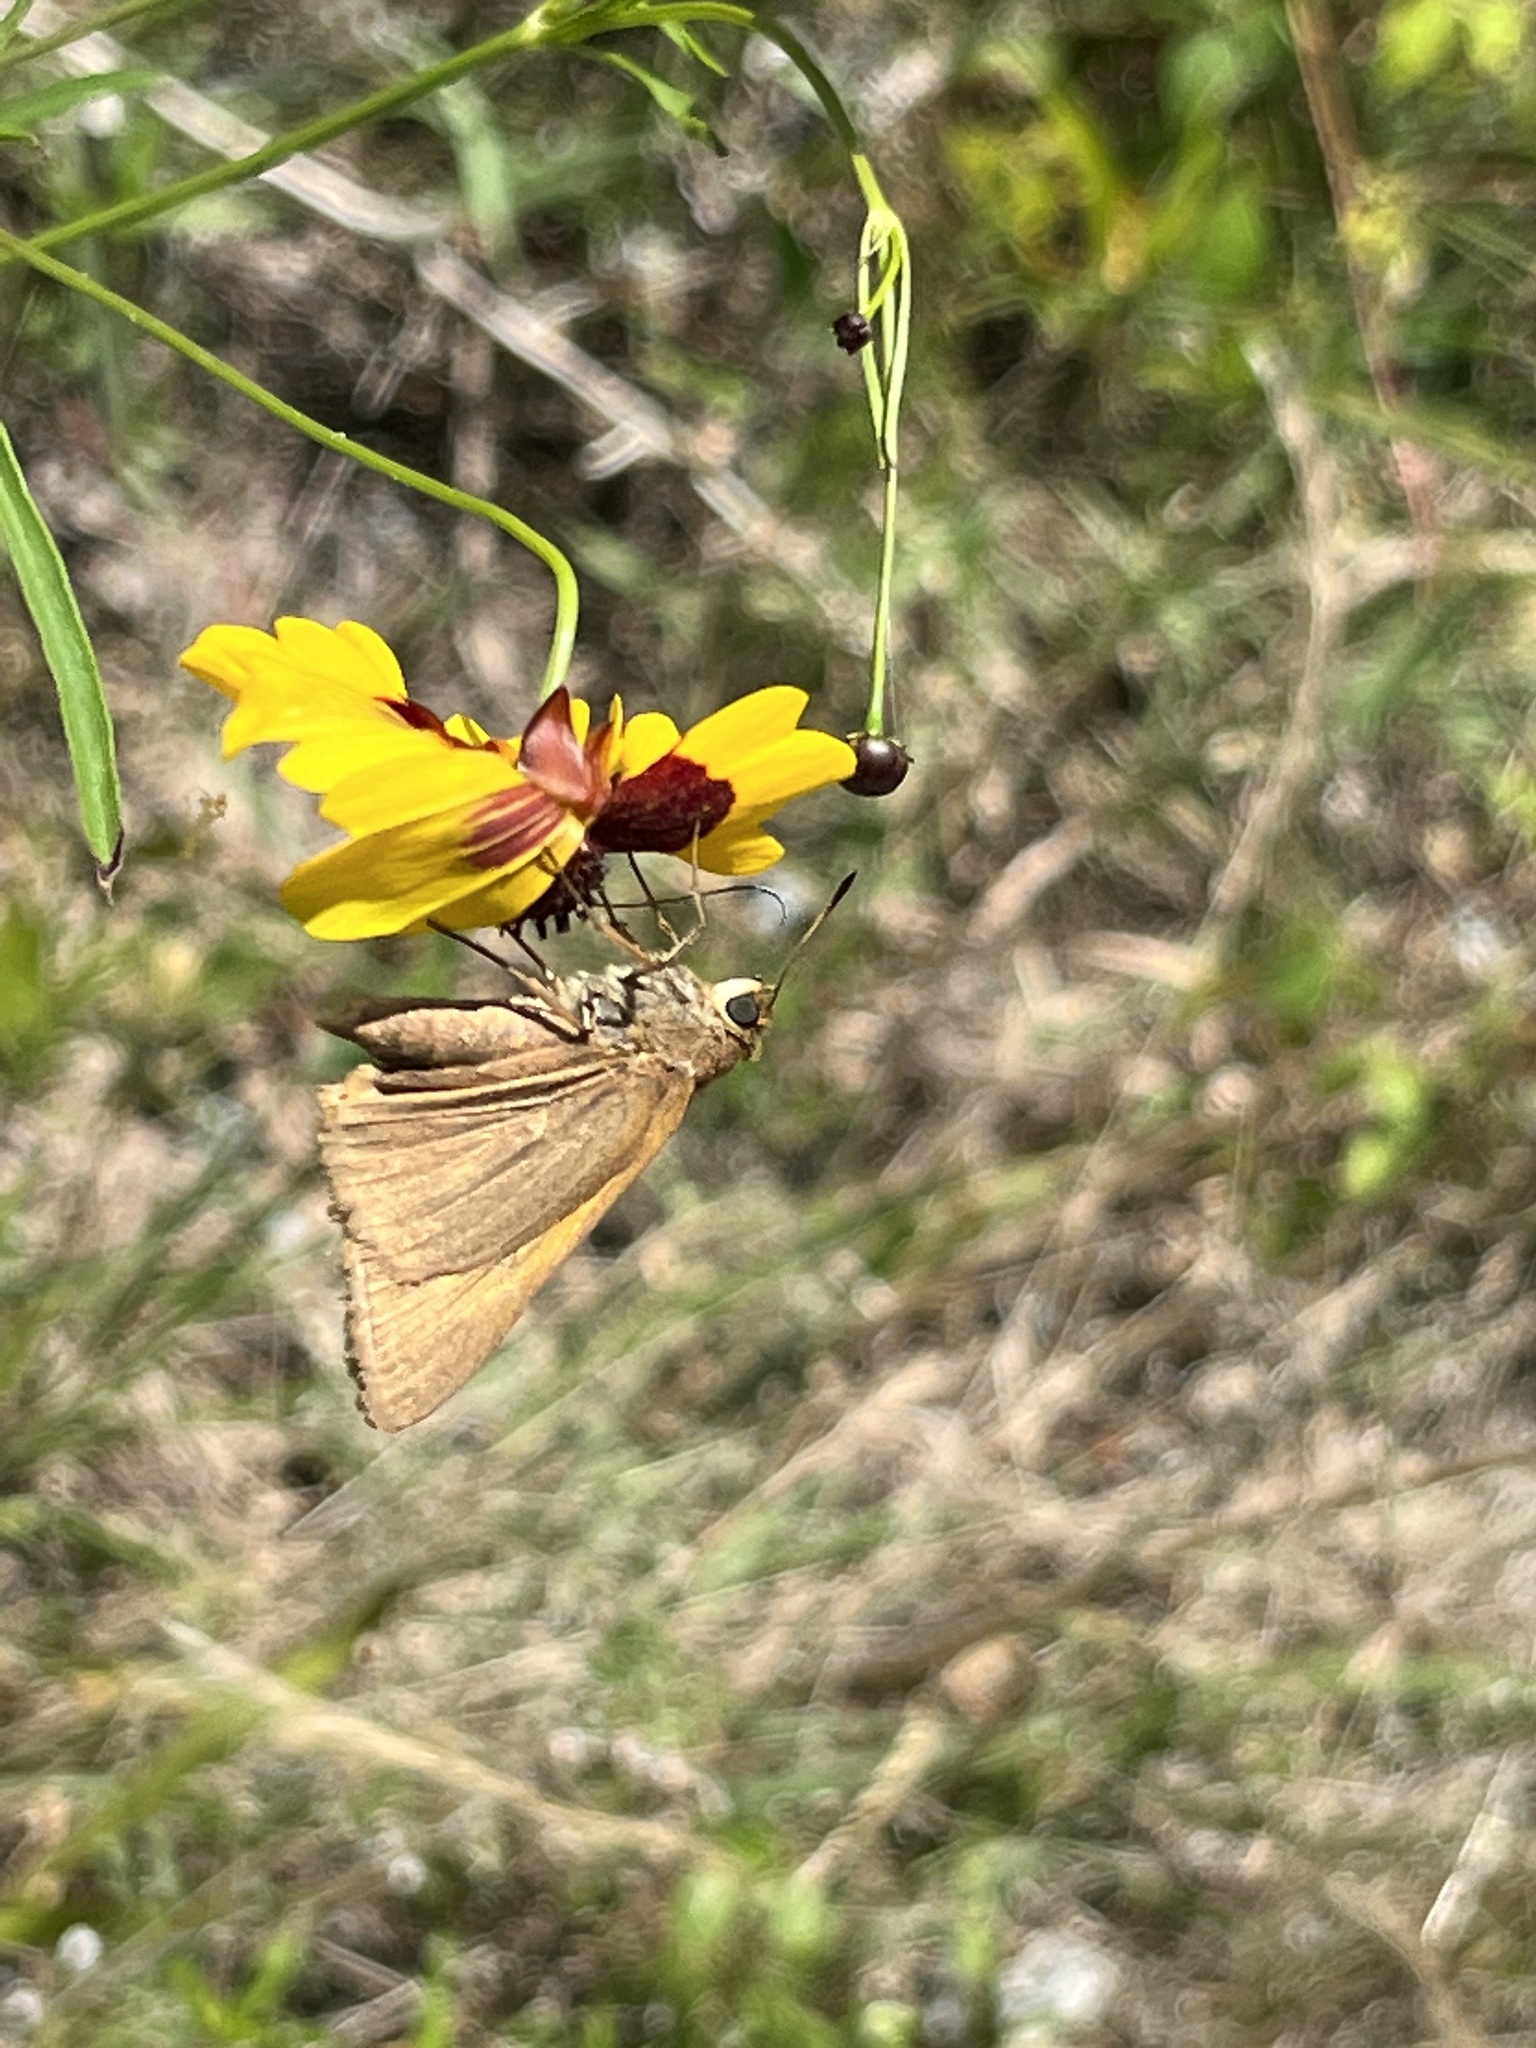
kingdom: Animalia
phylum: Arthropoda
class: Insecta
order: Lepidoptera
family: Hesperiidae
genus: Euphyes
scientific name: Euphyes pilatka
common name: Palatka skipper
